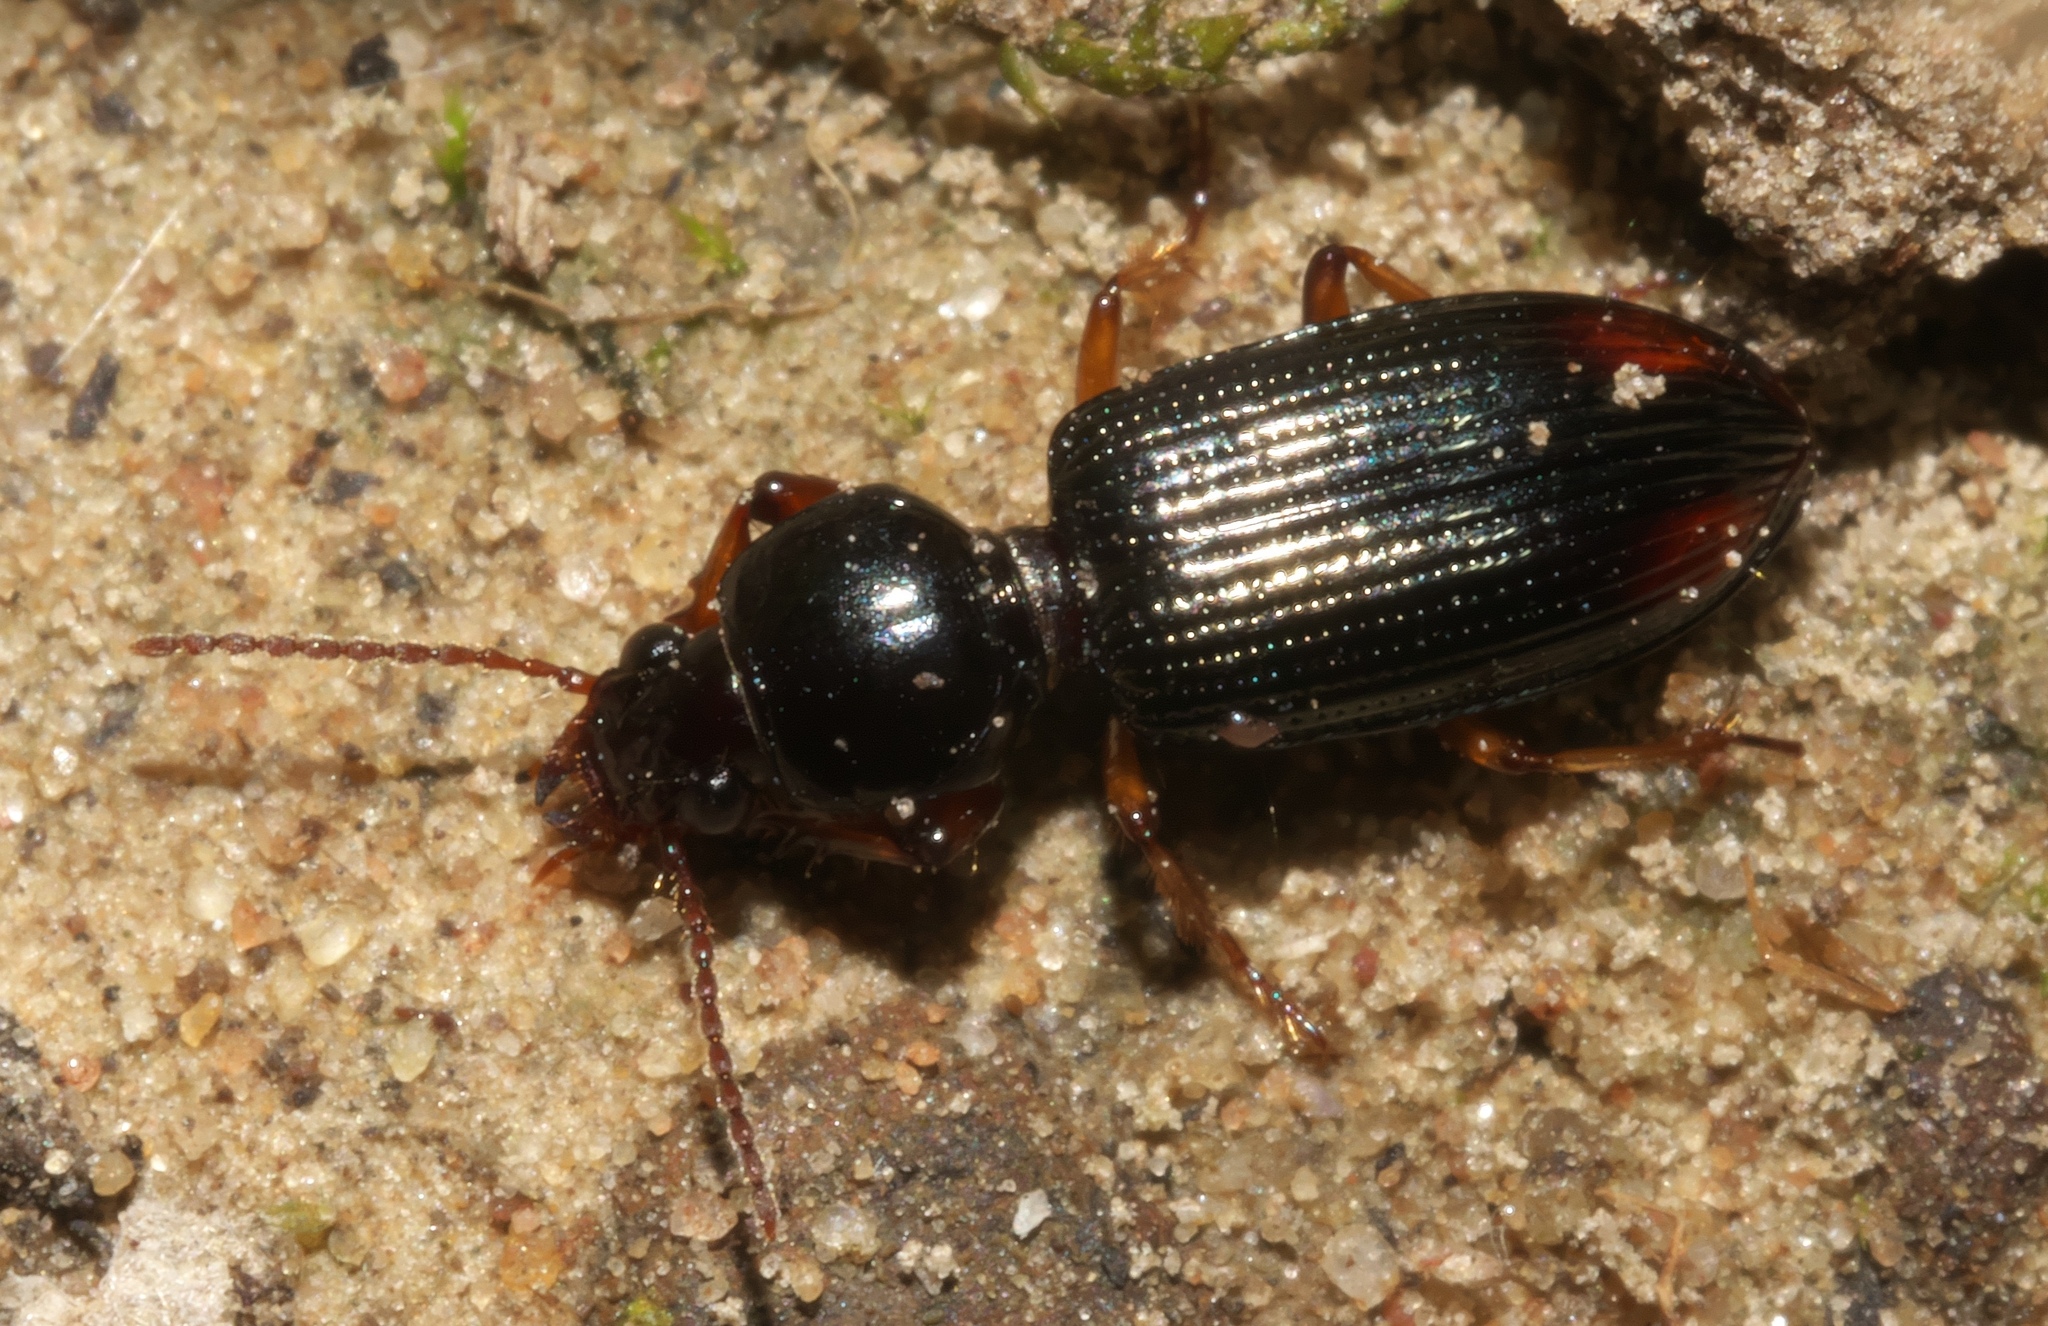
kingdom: Animalia
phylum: Arthropoda
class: Insecta
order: Coleoptera
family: Carabidae
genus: Aspidoglossa
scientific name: Aspidoglossa subangulata
